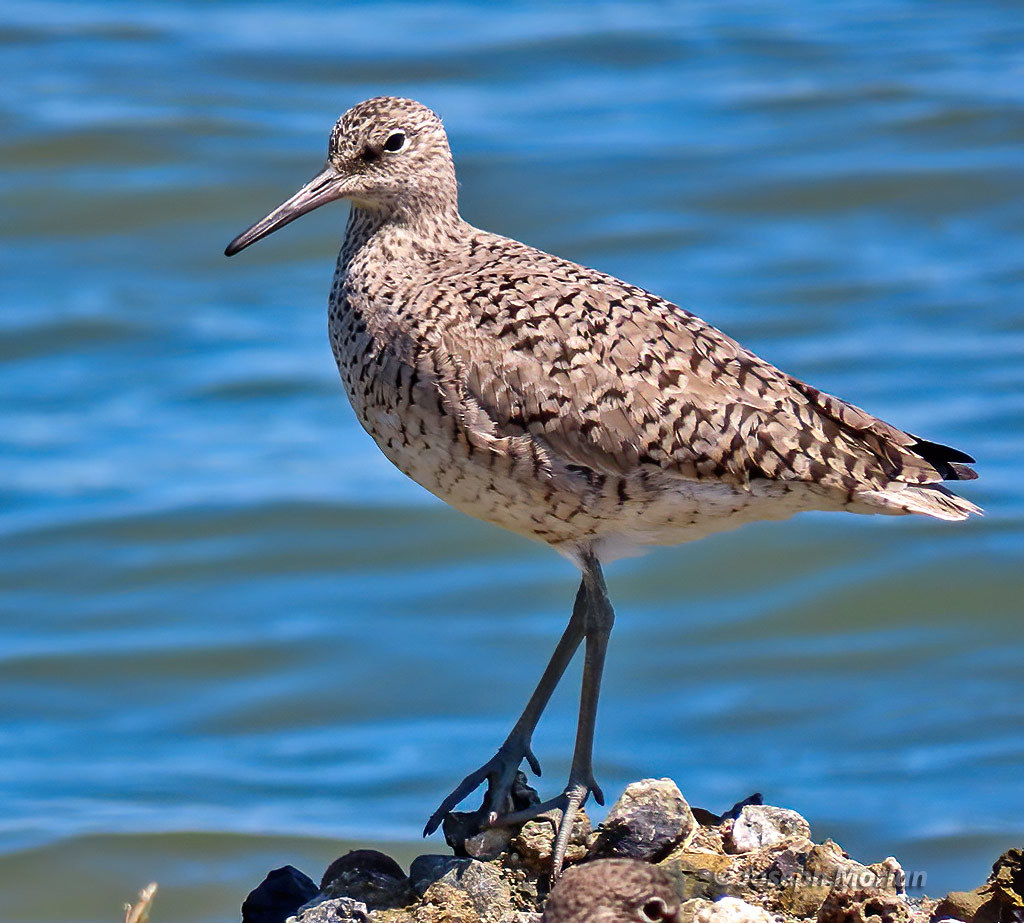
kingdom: Animalia
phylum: Chordata
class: Aves
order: Charadriiformes
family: Scolopacidae
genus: Tringa
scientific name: Tringa semipalmata
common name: Willet
